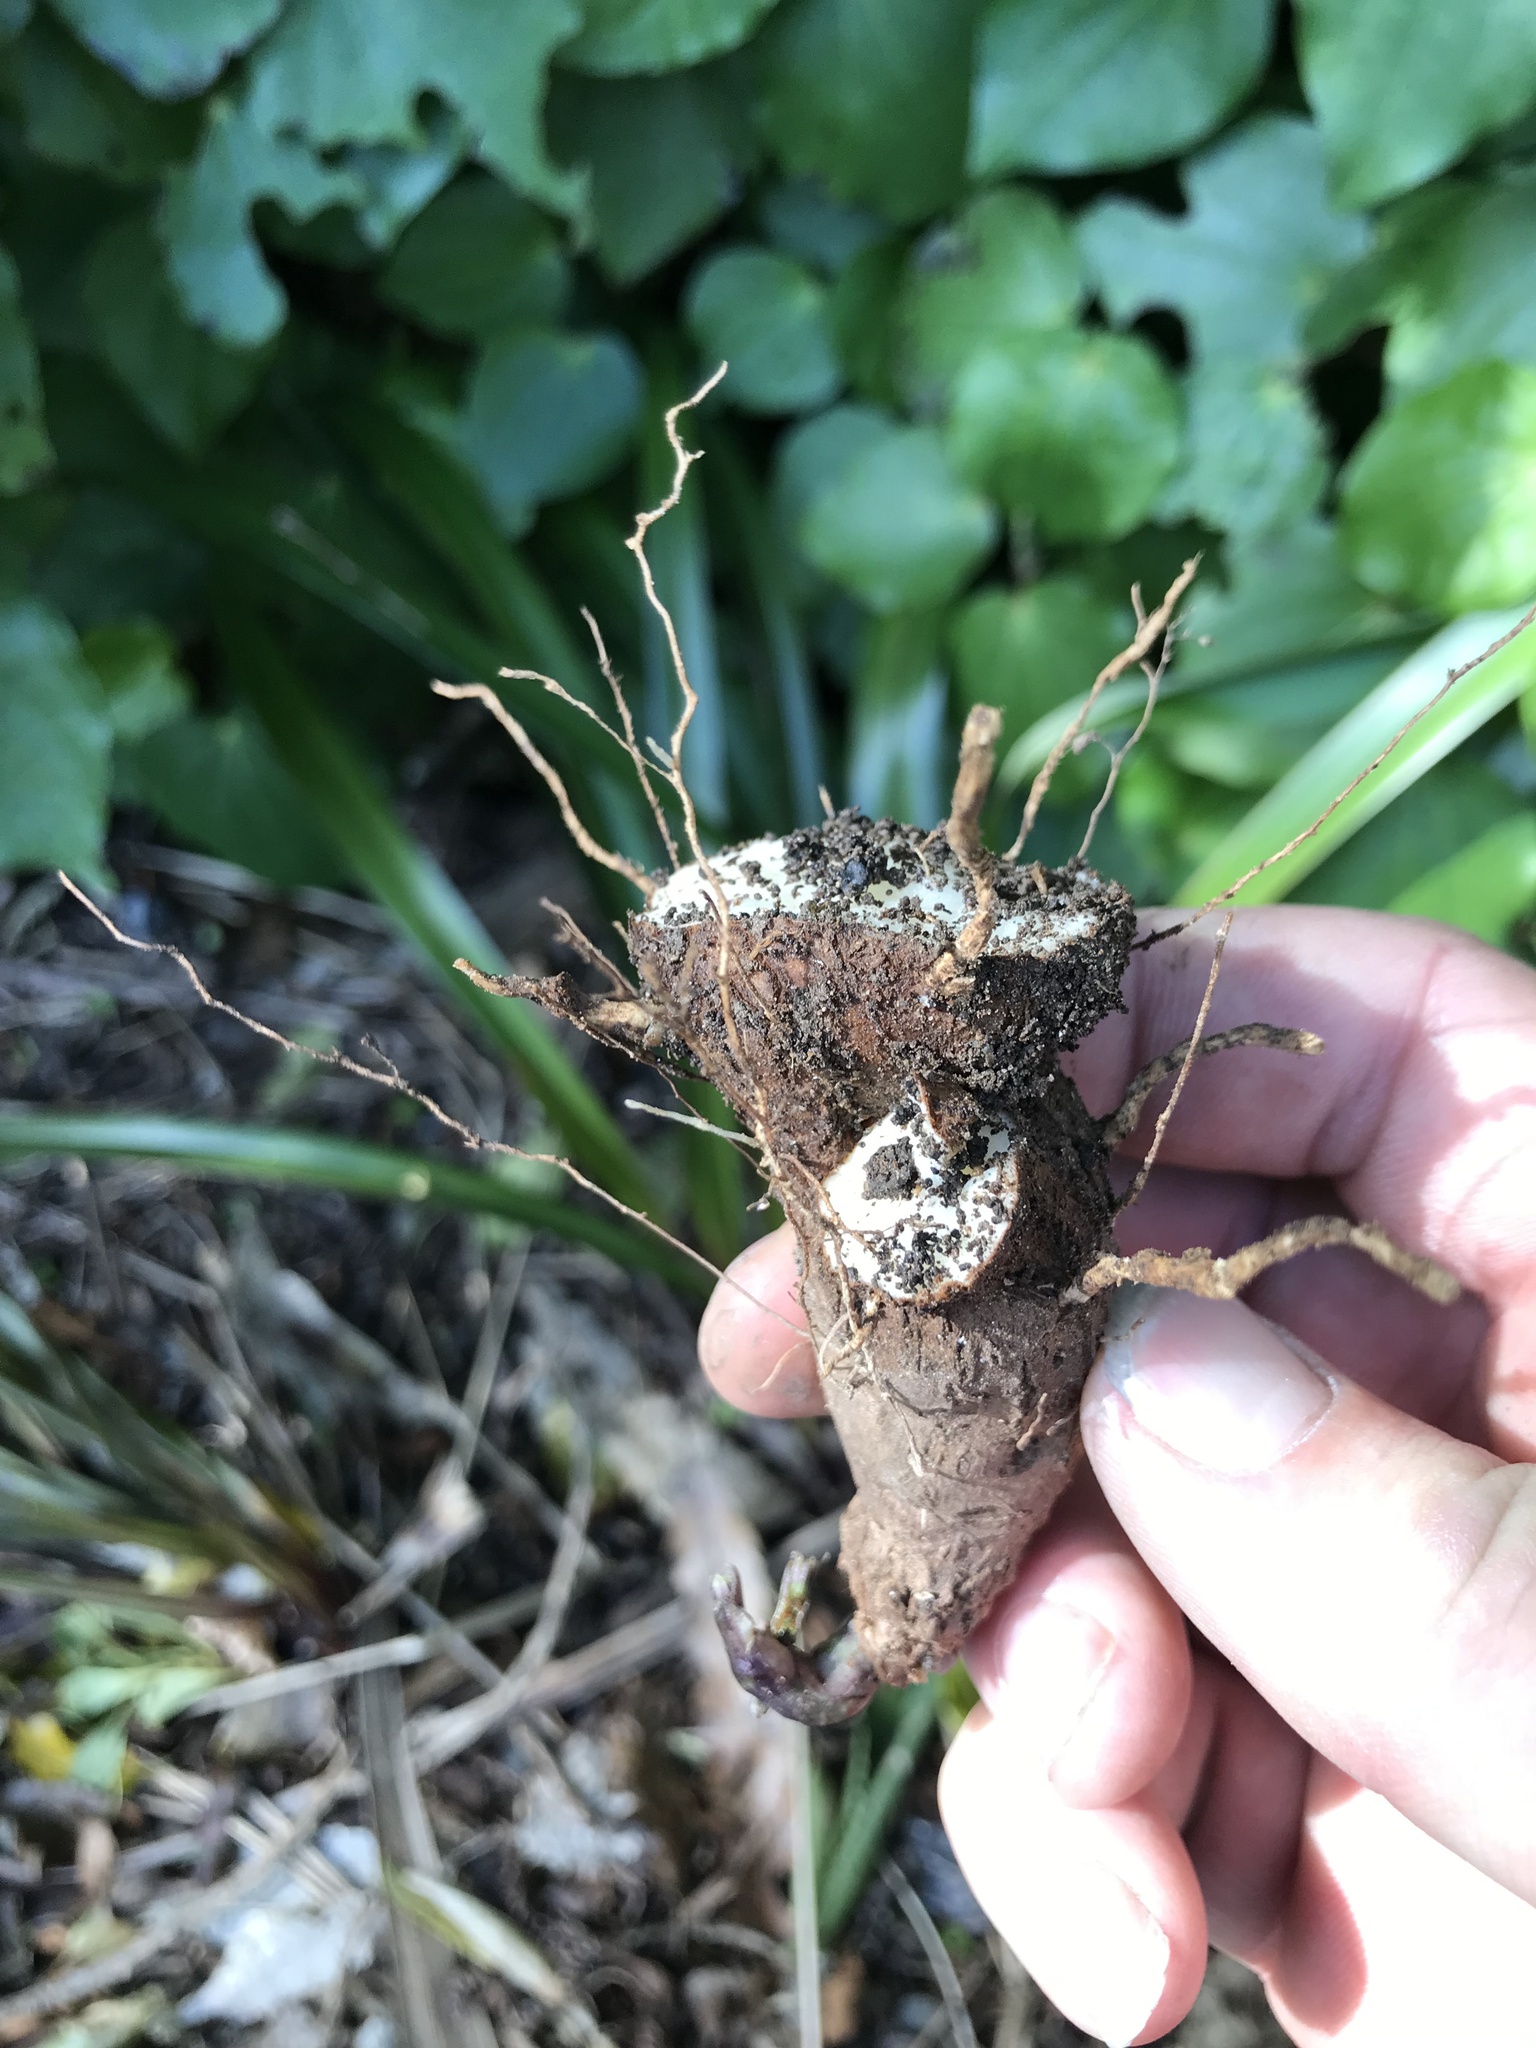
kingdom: Plantae
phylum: Tracheophyta
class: Liliopsida
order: Dioscoreales
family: Dioscoreaceae
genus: Dioscorea
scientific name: Dioscorea communis
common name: Black-bindweed
